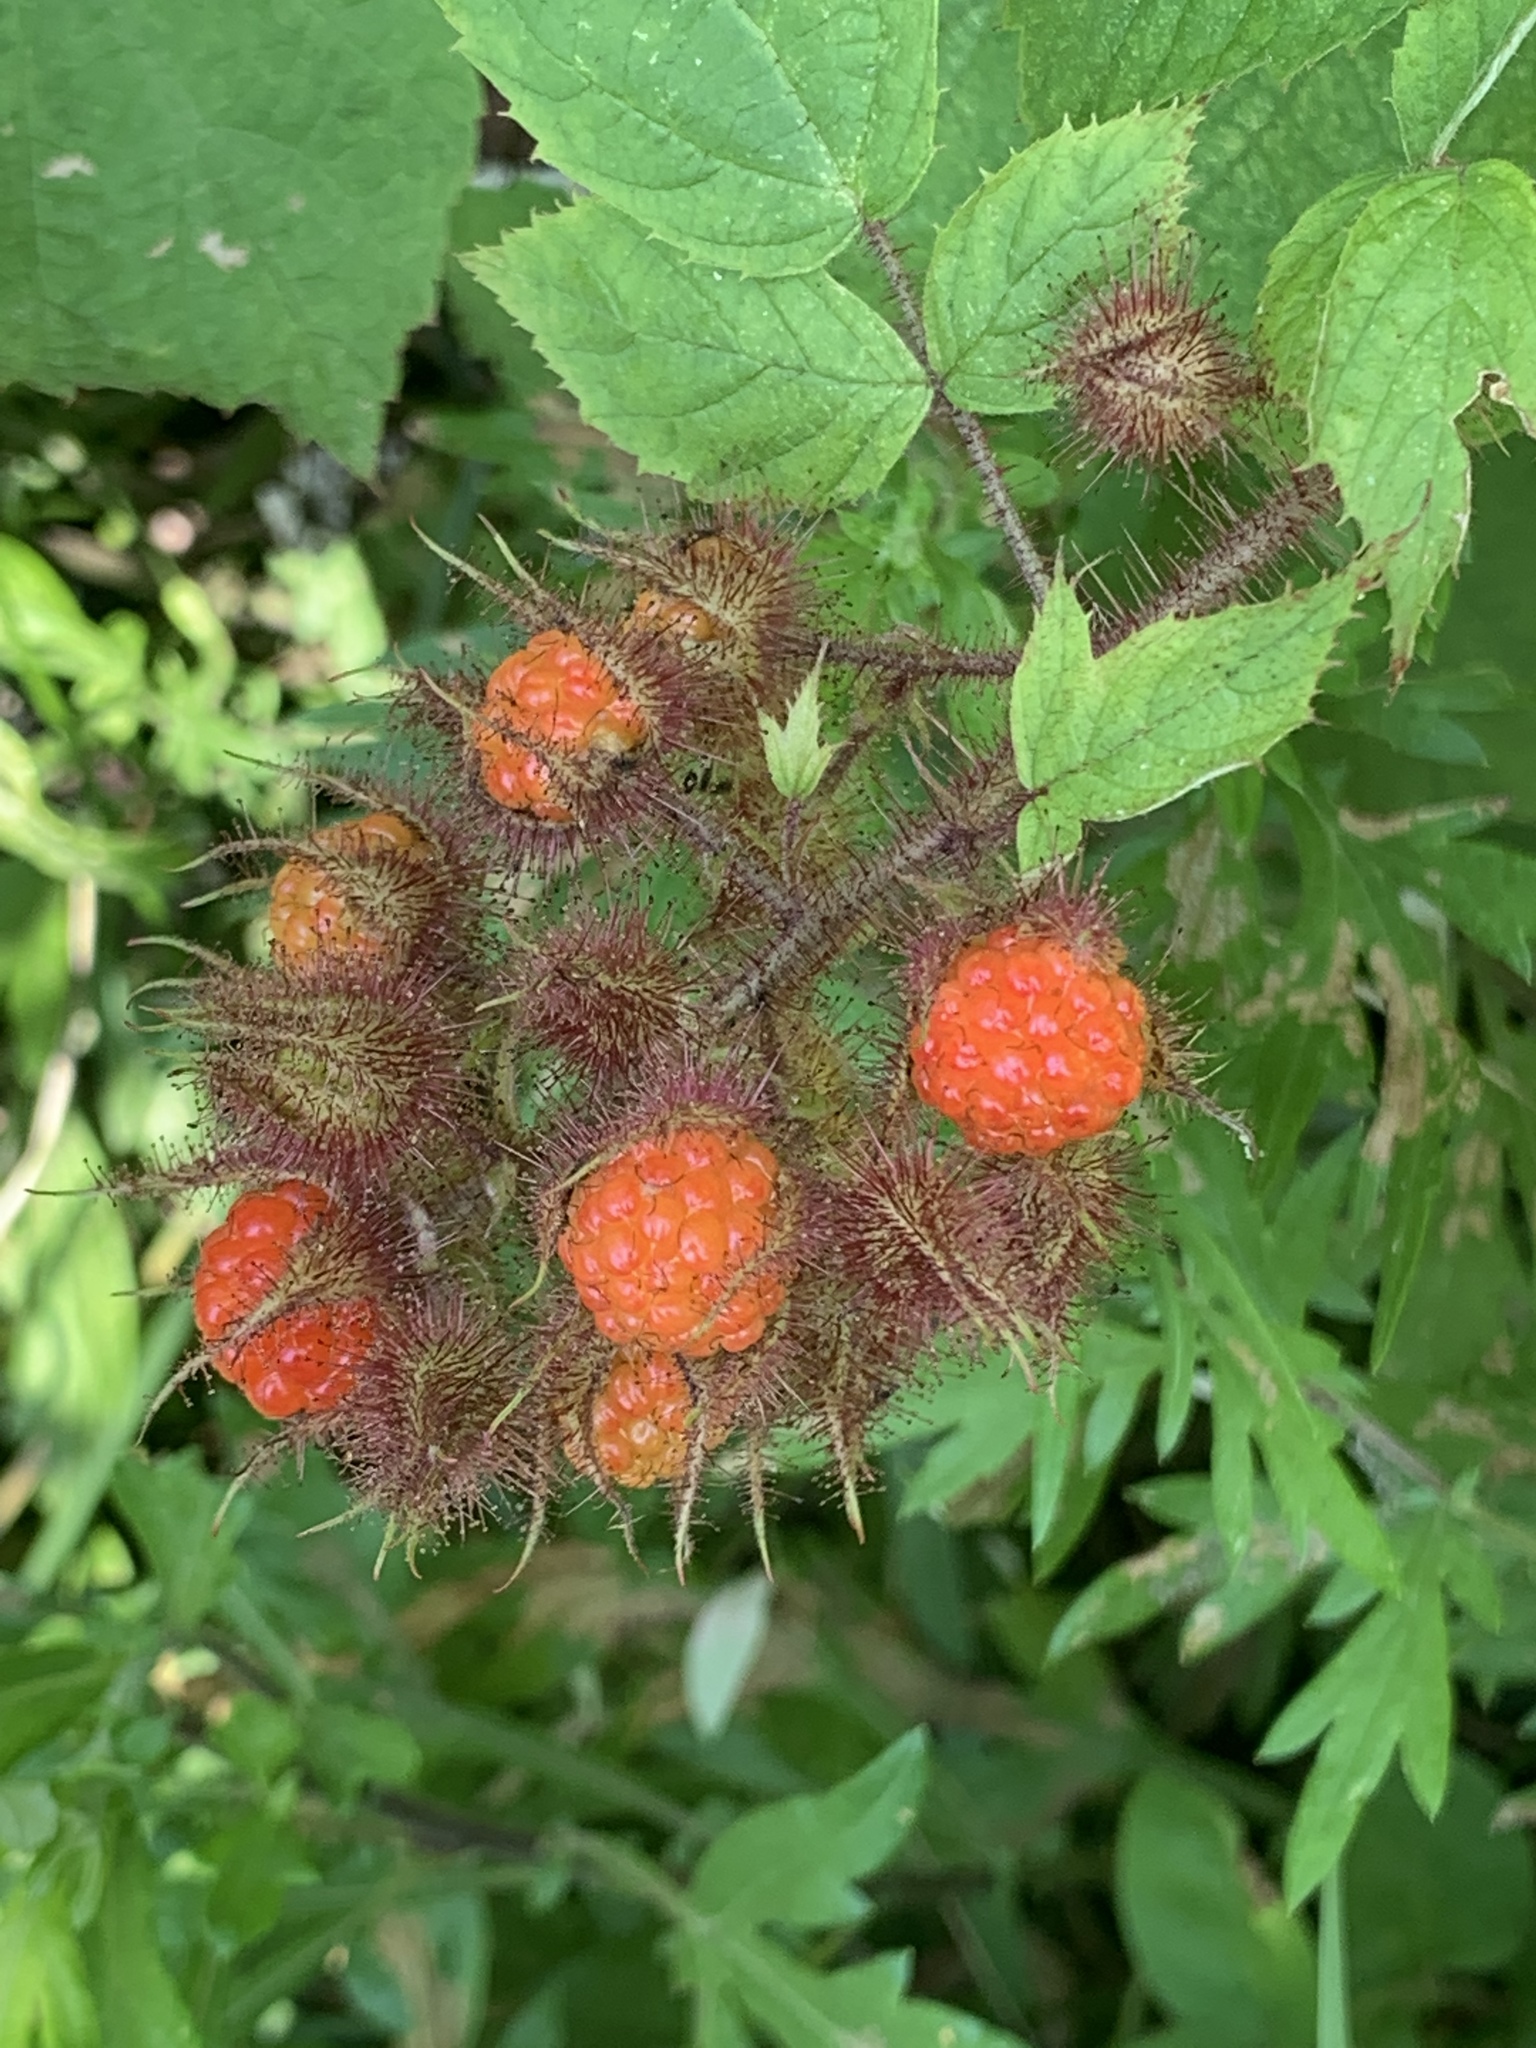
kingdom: Plantae
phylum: Tracheophyta
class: Magnoliopsida
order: Rosales
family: Rosaceae
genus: Rubus
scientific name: Rubus phoenicolasius
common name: Japanese wineberry
